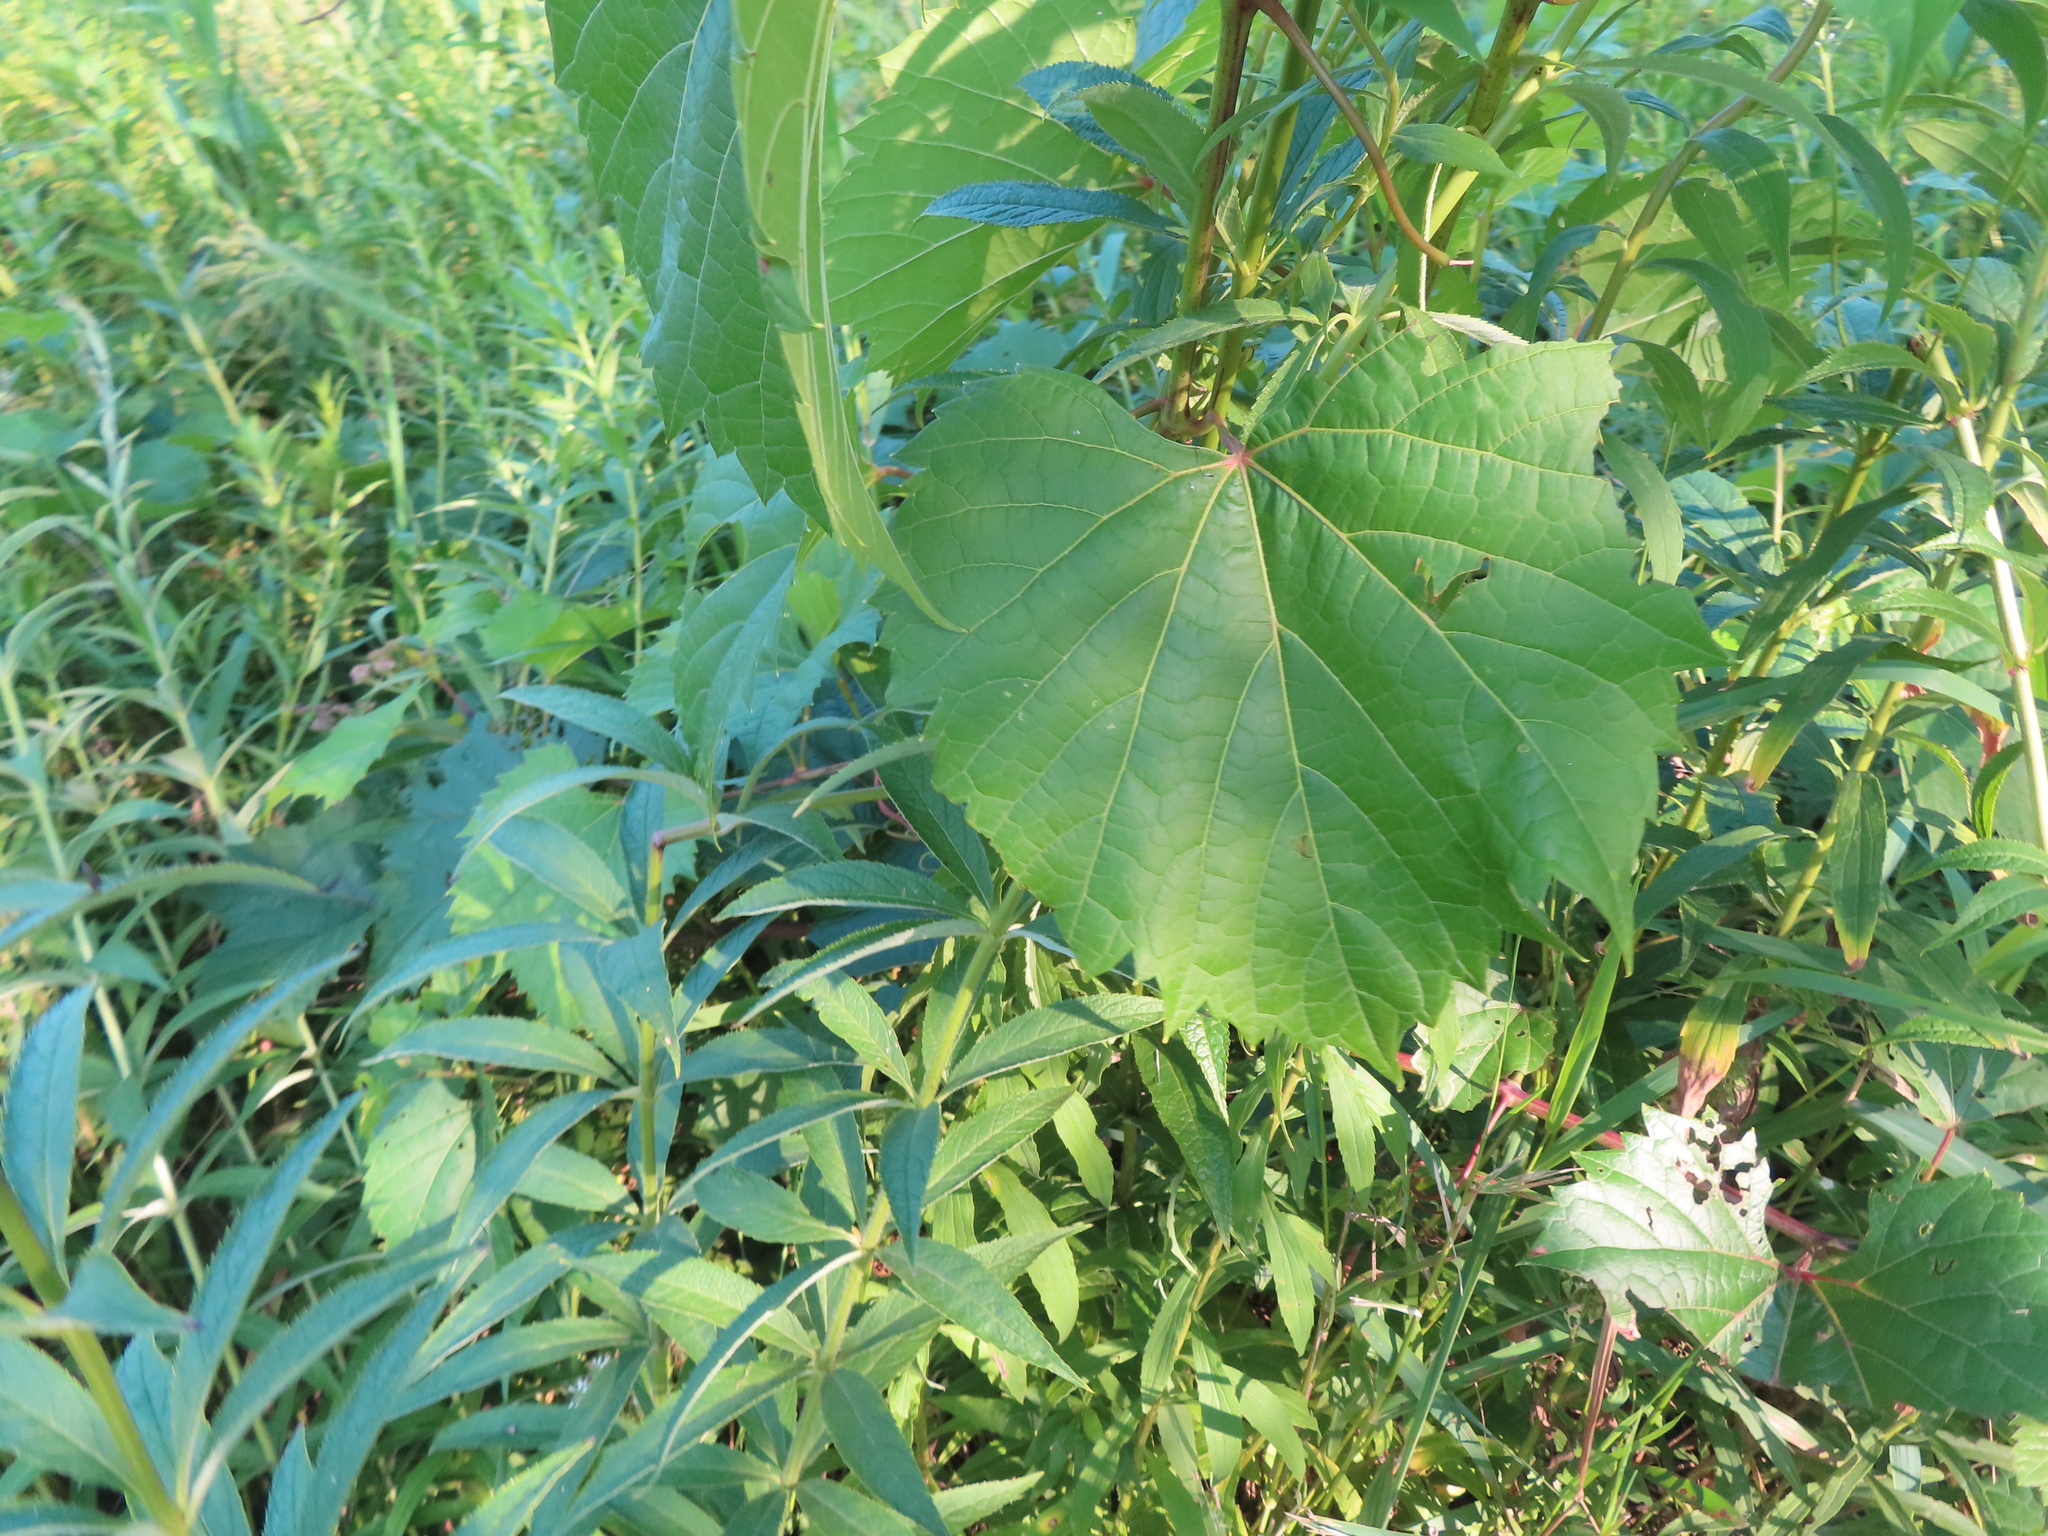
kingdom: Plantae
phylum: Tracheophyta
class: Magnoliopsida
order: Vitales
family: Vitaceae
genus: Vitis
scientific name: Vitis riparia
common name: Frost grape
